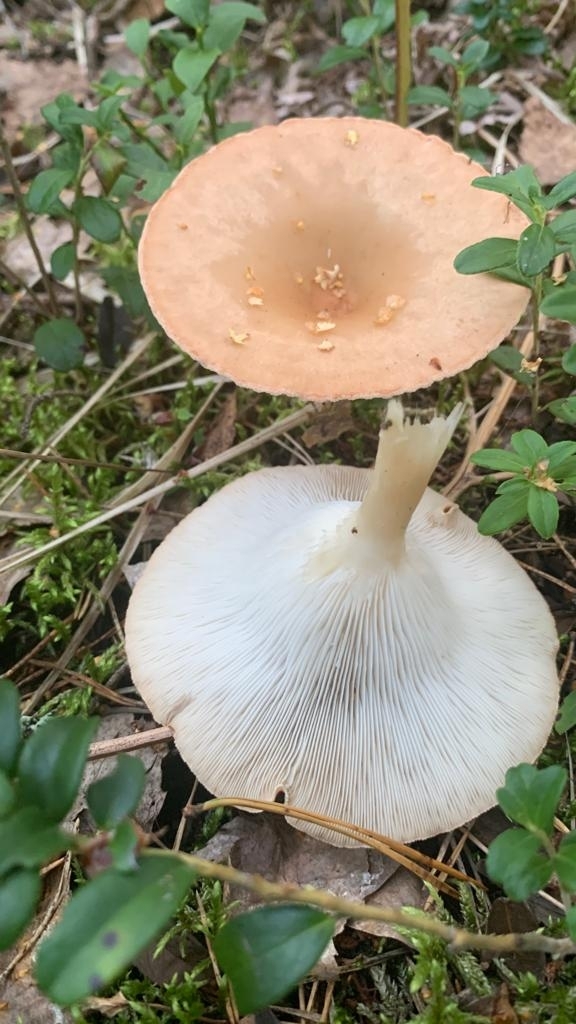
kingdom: Fungi
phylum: Basidiomycota
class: Agaricomycetes
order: Agaricales
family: Tricholomataceae
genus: Infundibulicybe
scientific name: Infundibulicybe gibba
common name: Common funnel
